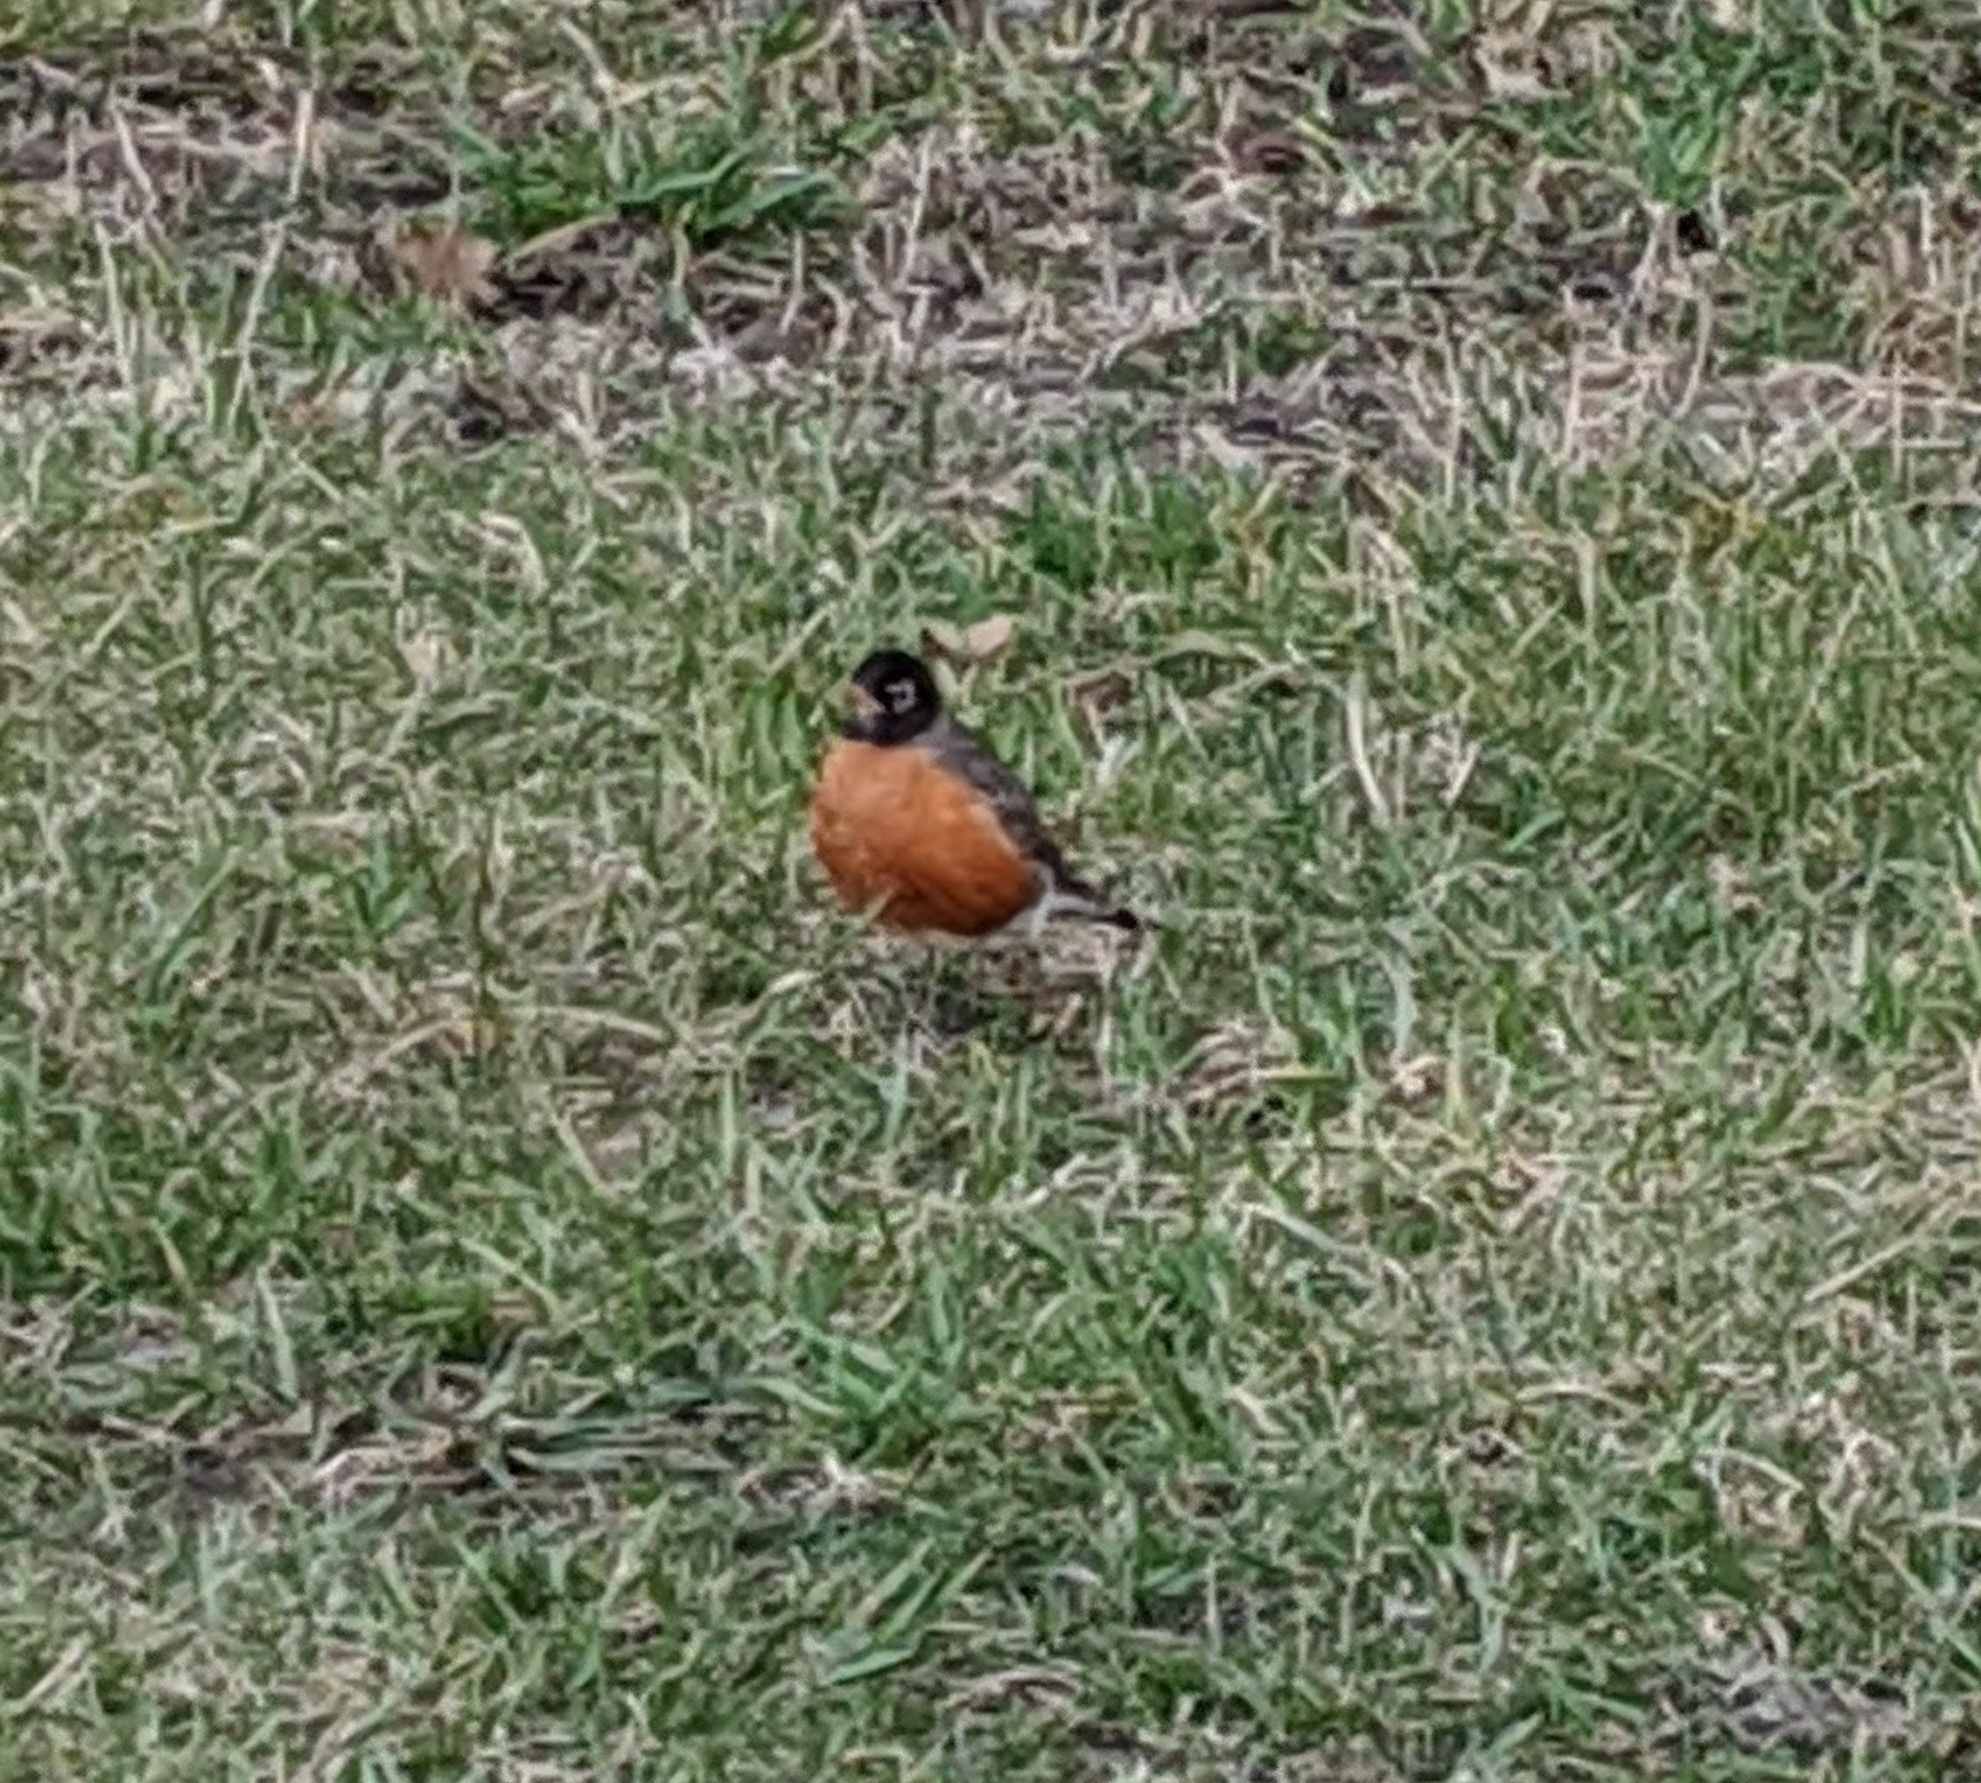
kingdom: Animalia
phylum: Chordata
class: Aves
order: Passeriformes
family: Turdidae
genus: Turdus
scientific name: Turdus migratorius
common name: American robin
